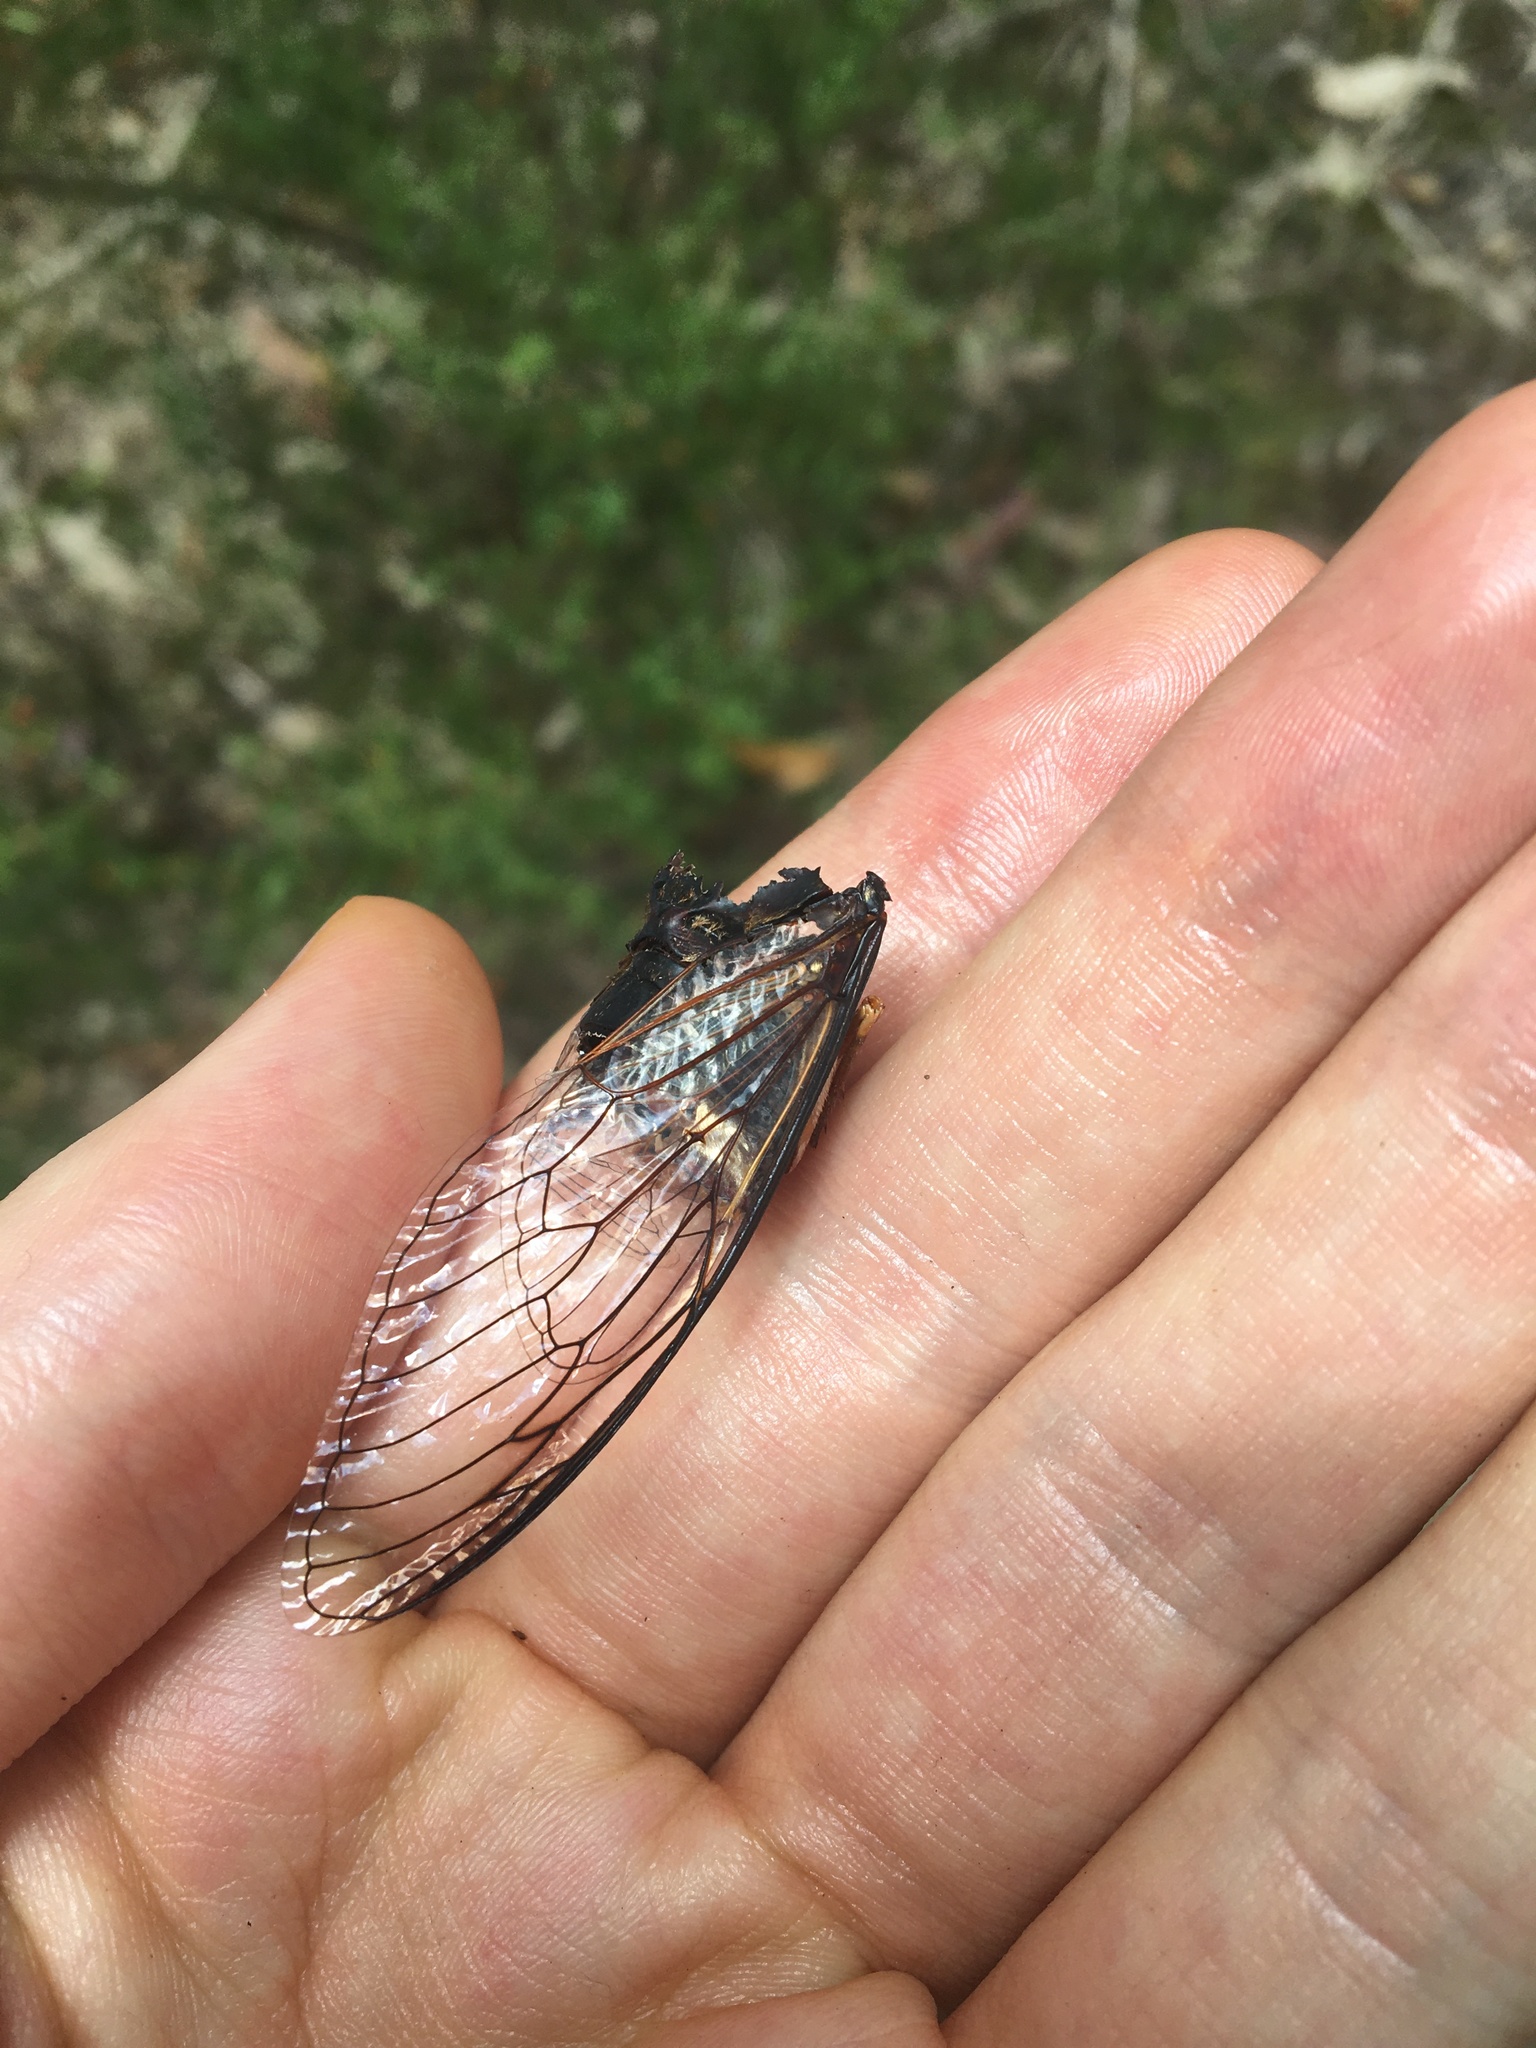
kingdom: Animalia
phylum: Arthropoda
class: Insecta
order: Hemiptera
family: Cicadidae
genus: Psaltoda
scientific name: Psaltoda plaga
